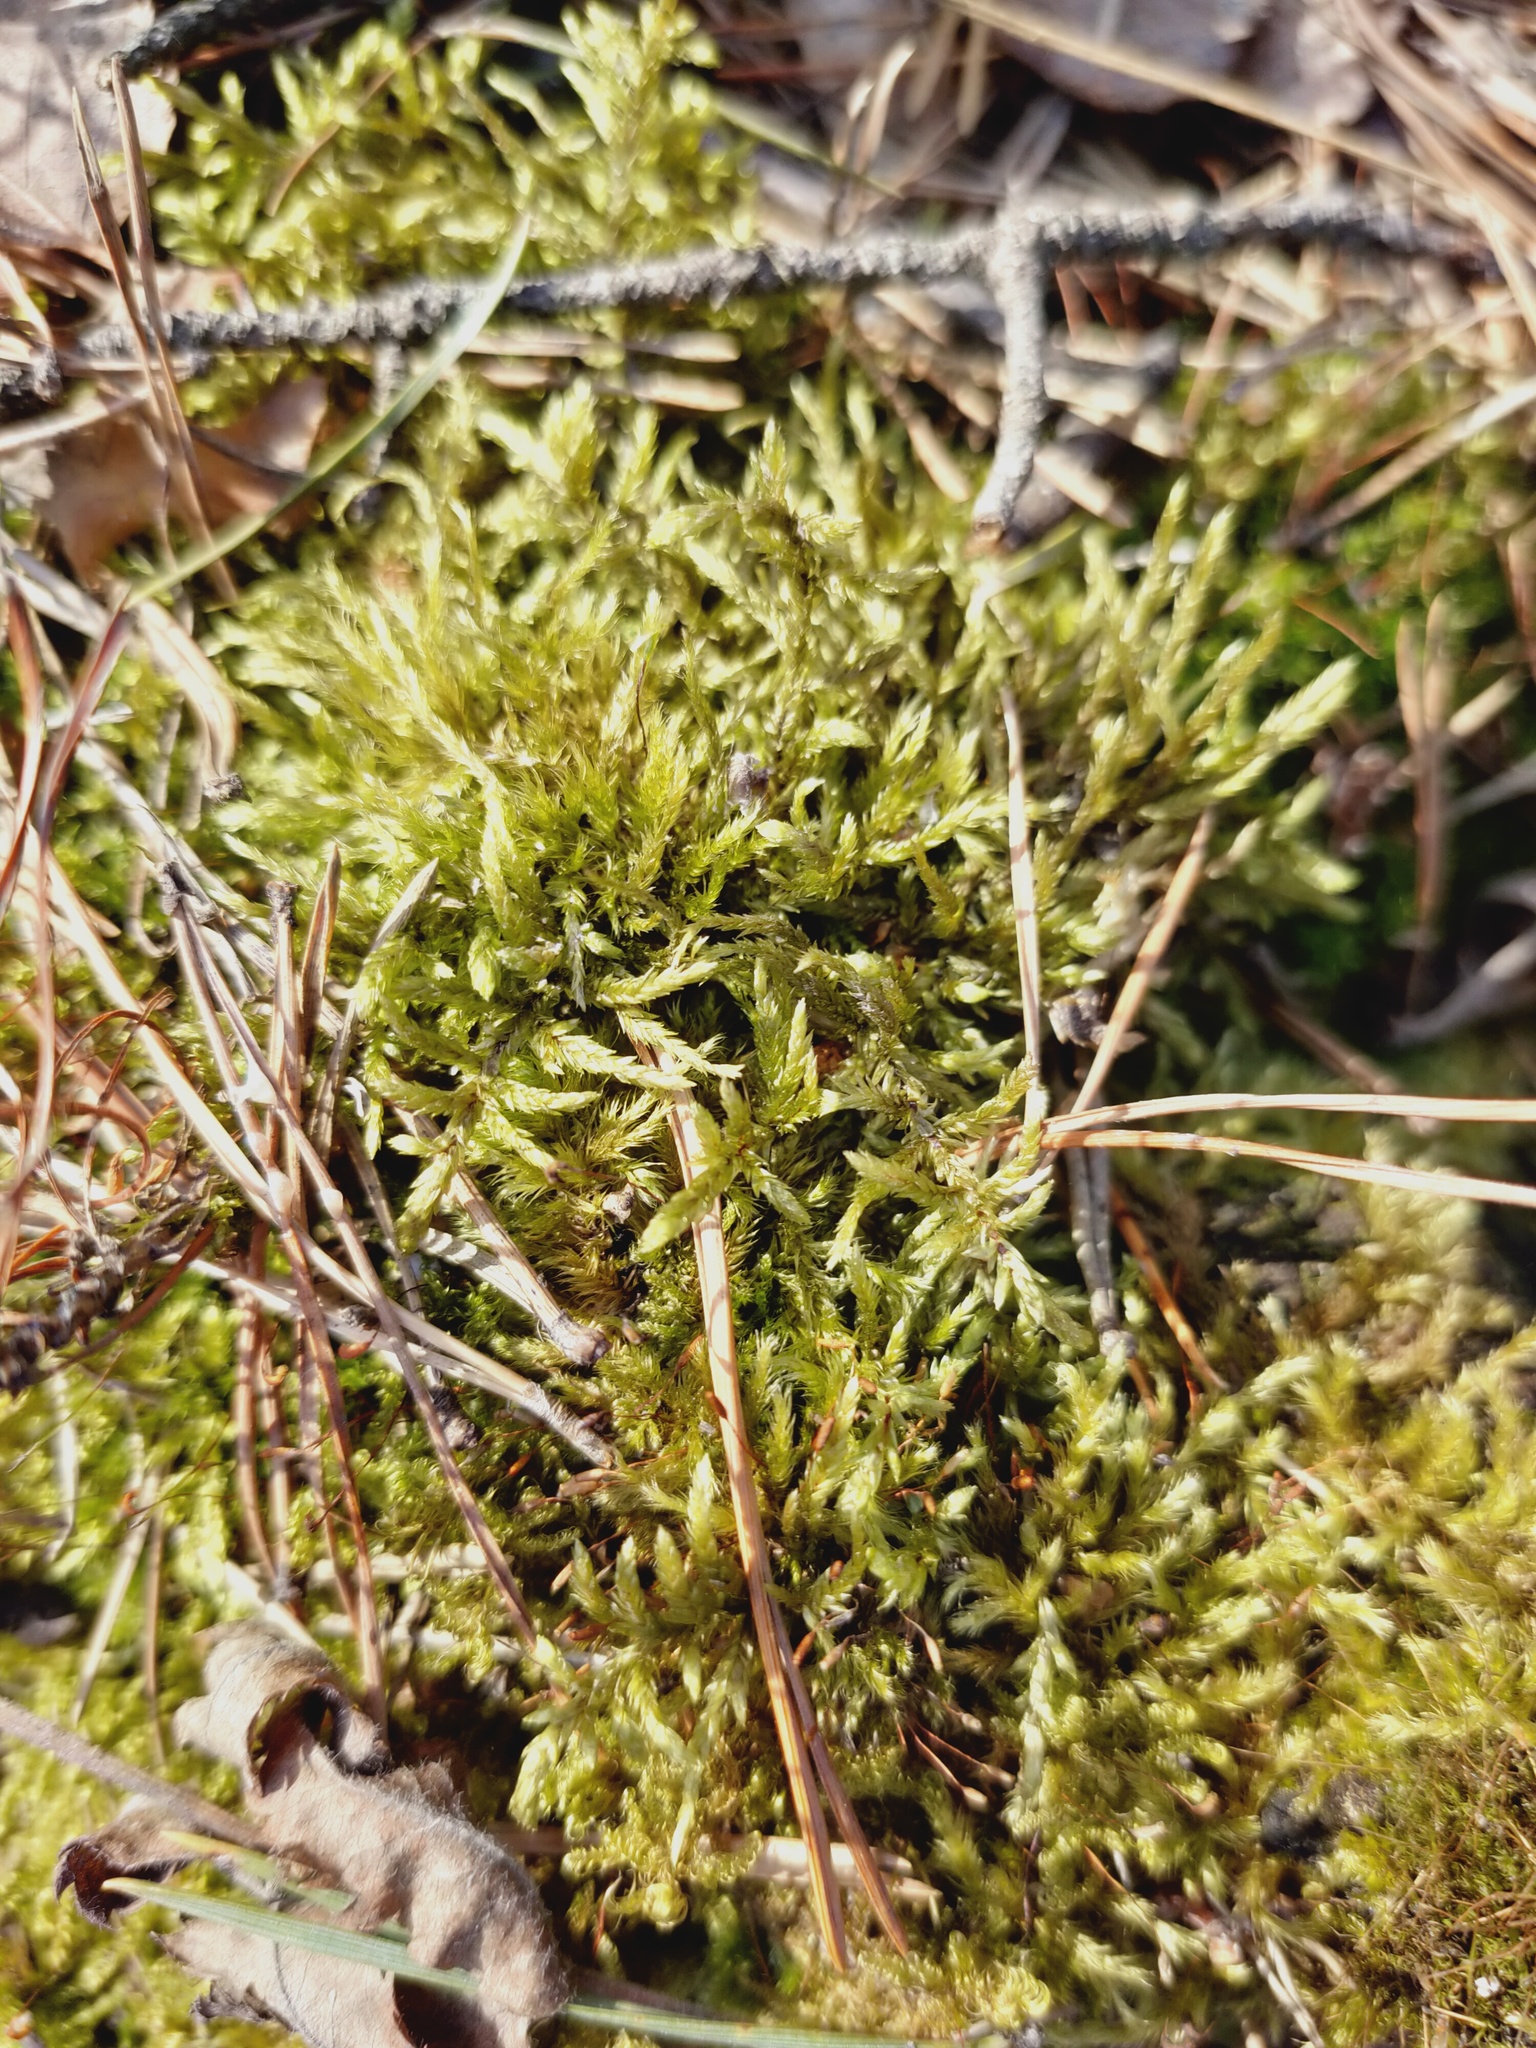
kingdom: Plantae
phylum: Bryophyta
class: Bryopsida
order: Hypnales
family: Hylocomiaceae
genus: Pleurozium
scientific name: Pleurozium schreberi
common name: Red-stemmed feather moss
